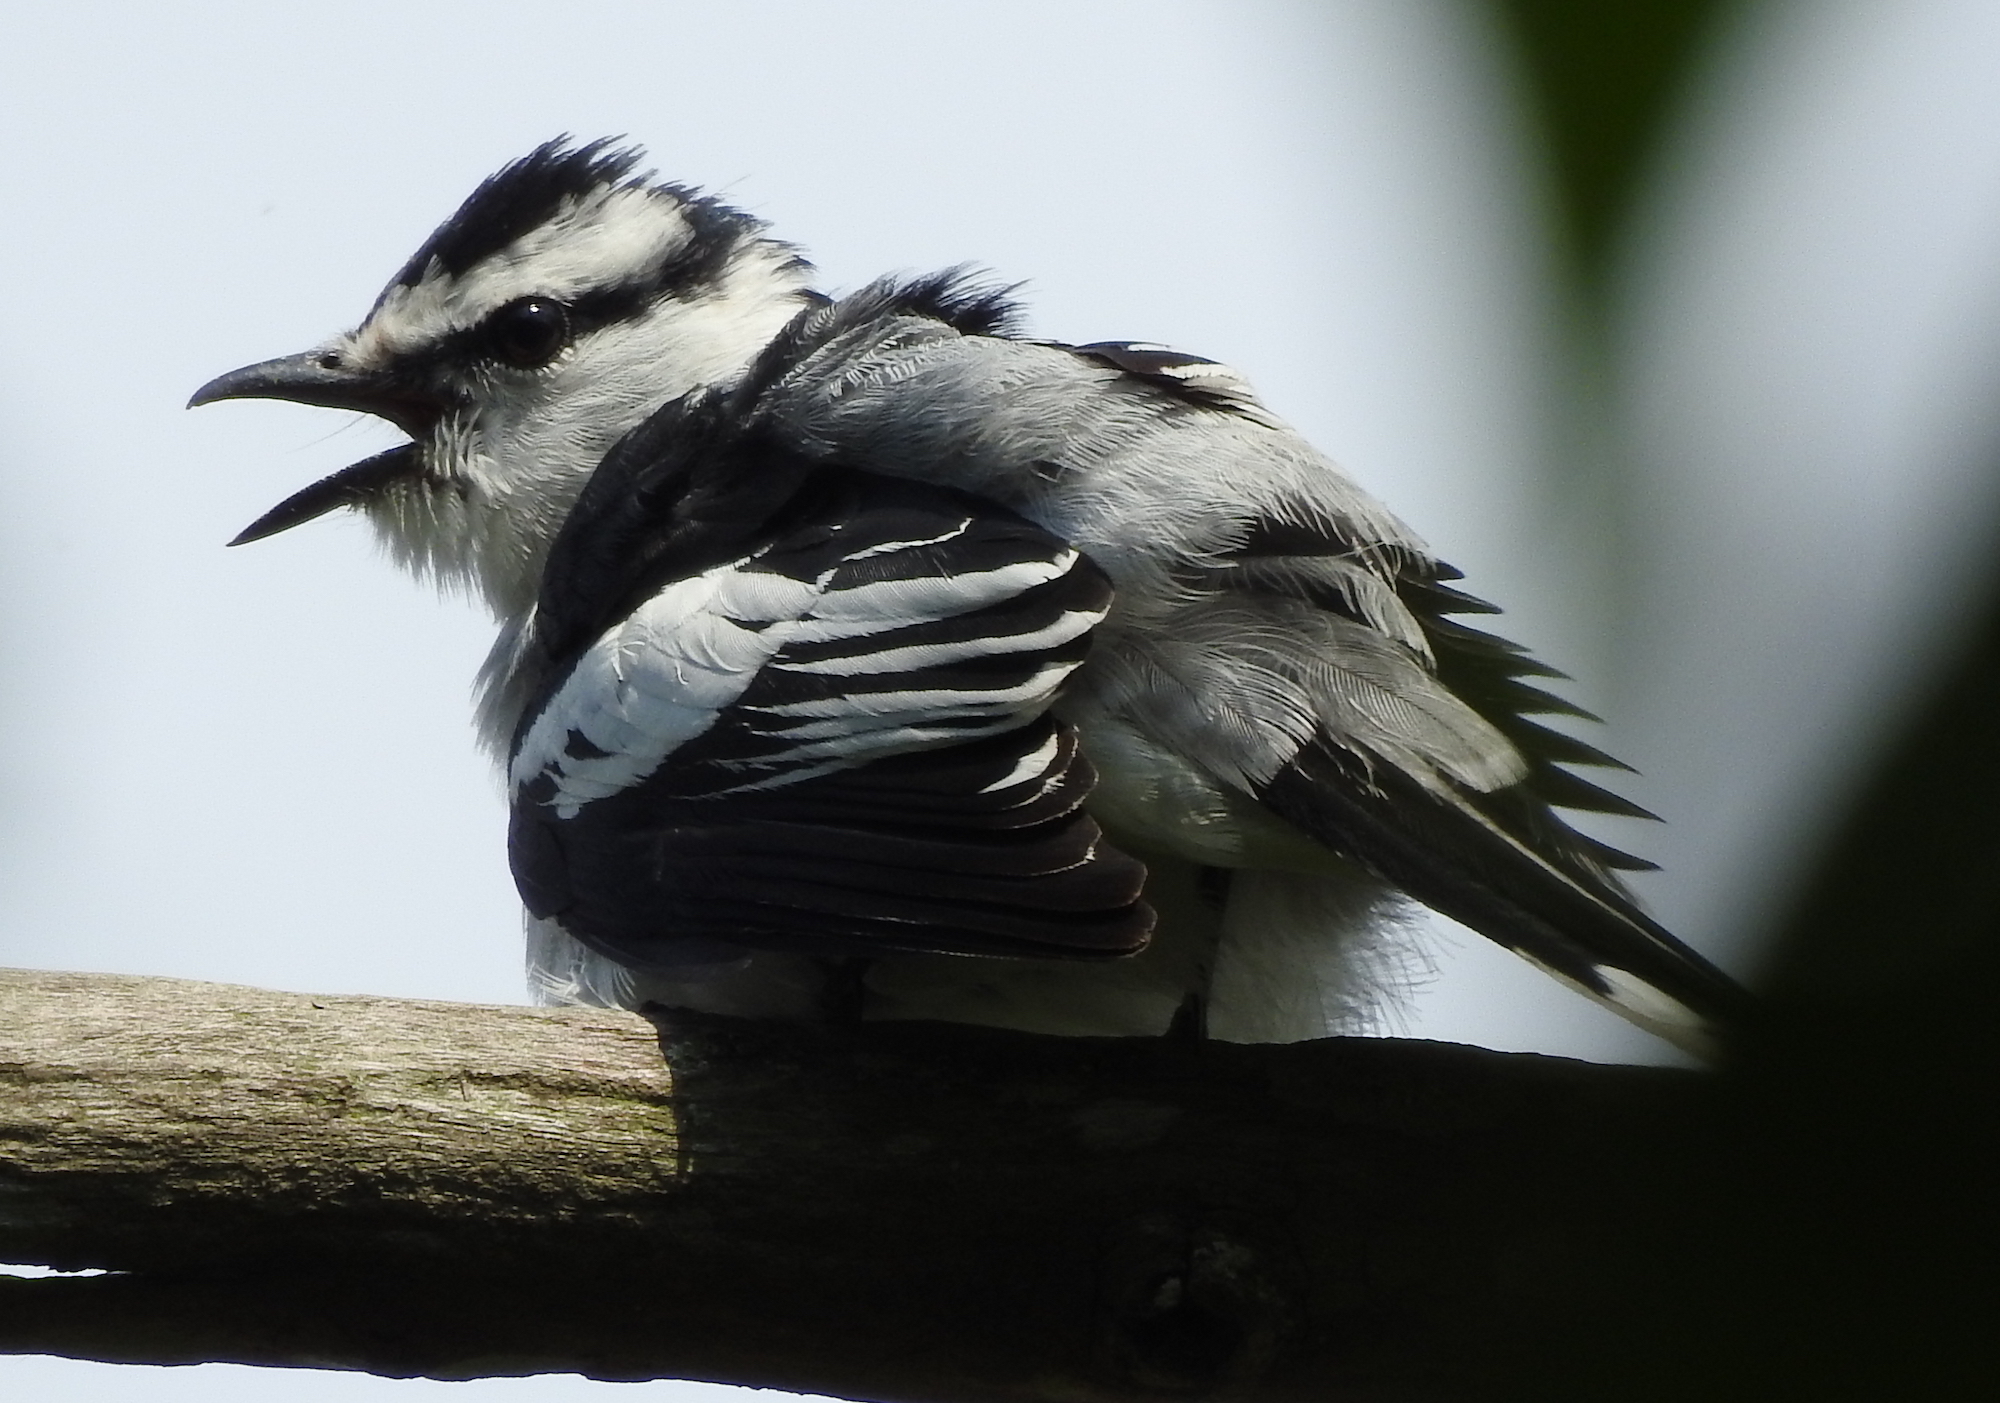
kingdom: Animalia
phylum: Chordata
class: Aves
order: Passeriformes
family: Campephagidae
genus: Lalage
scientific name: Lalage nigra
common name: Pied triller
